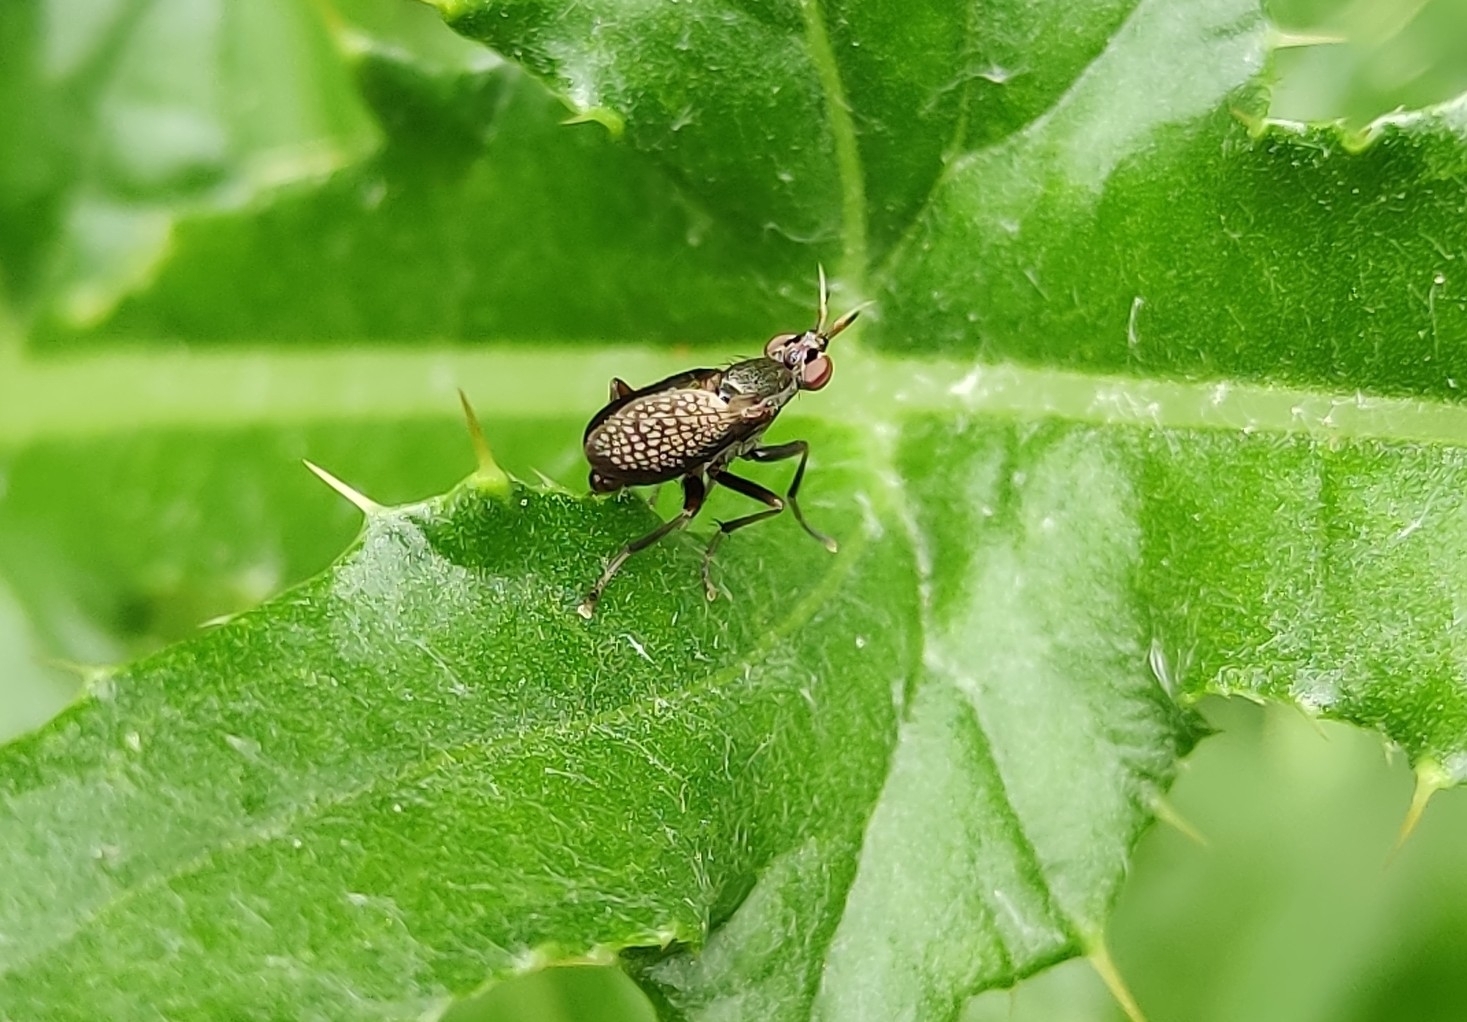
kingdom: Animalia
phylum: Arthropoda
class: Insecta
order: Diptera
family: Sciomyzidae
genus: Coremacera
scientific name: Coremacera marginata
